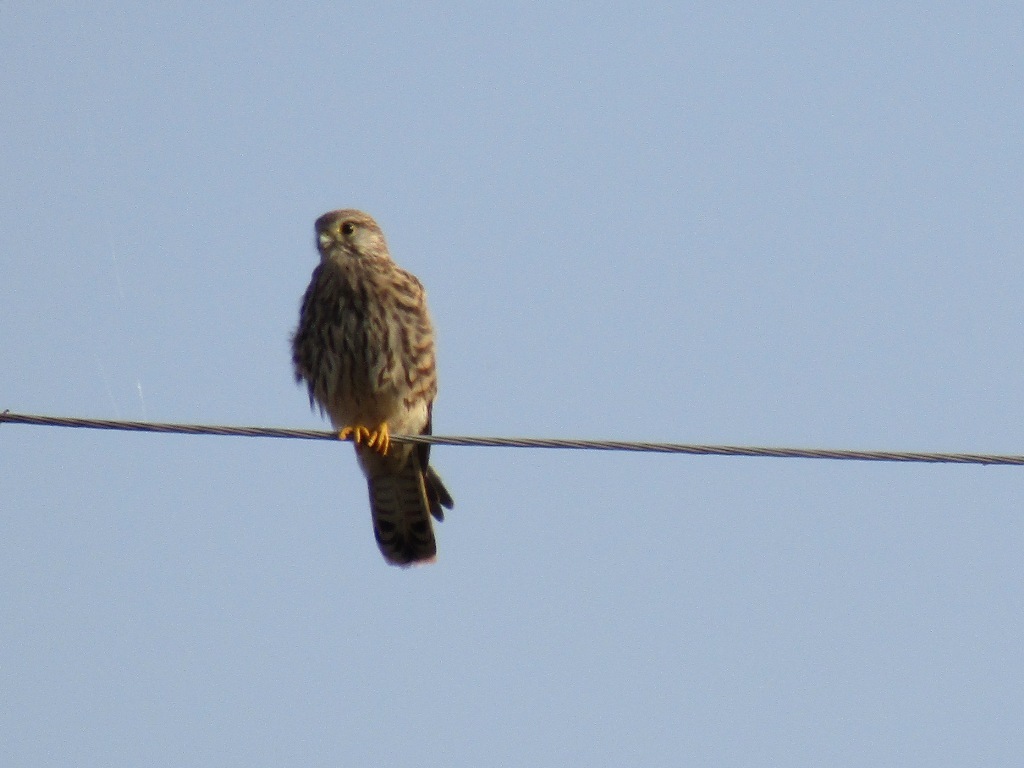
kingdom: Animalia
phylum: Chordata
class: Aves
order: Falconiformes
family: Falconidae
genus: Falco
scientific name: Falco tinnunculus
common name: Common kestrel
